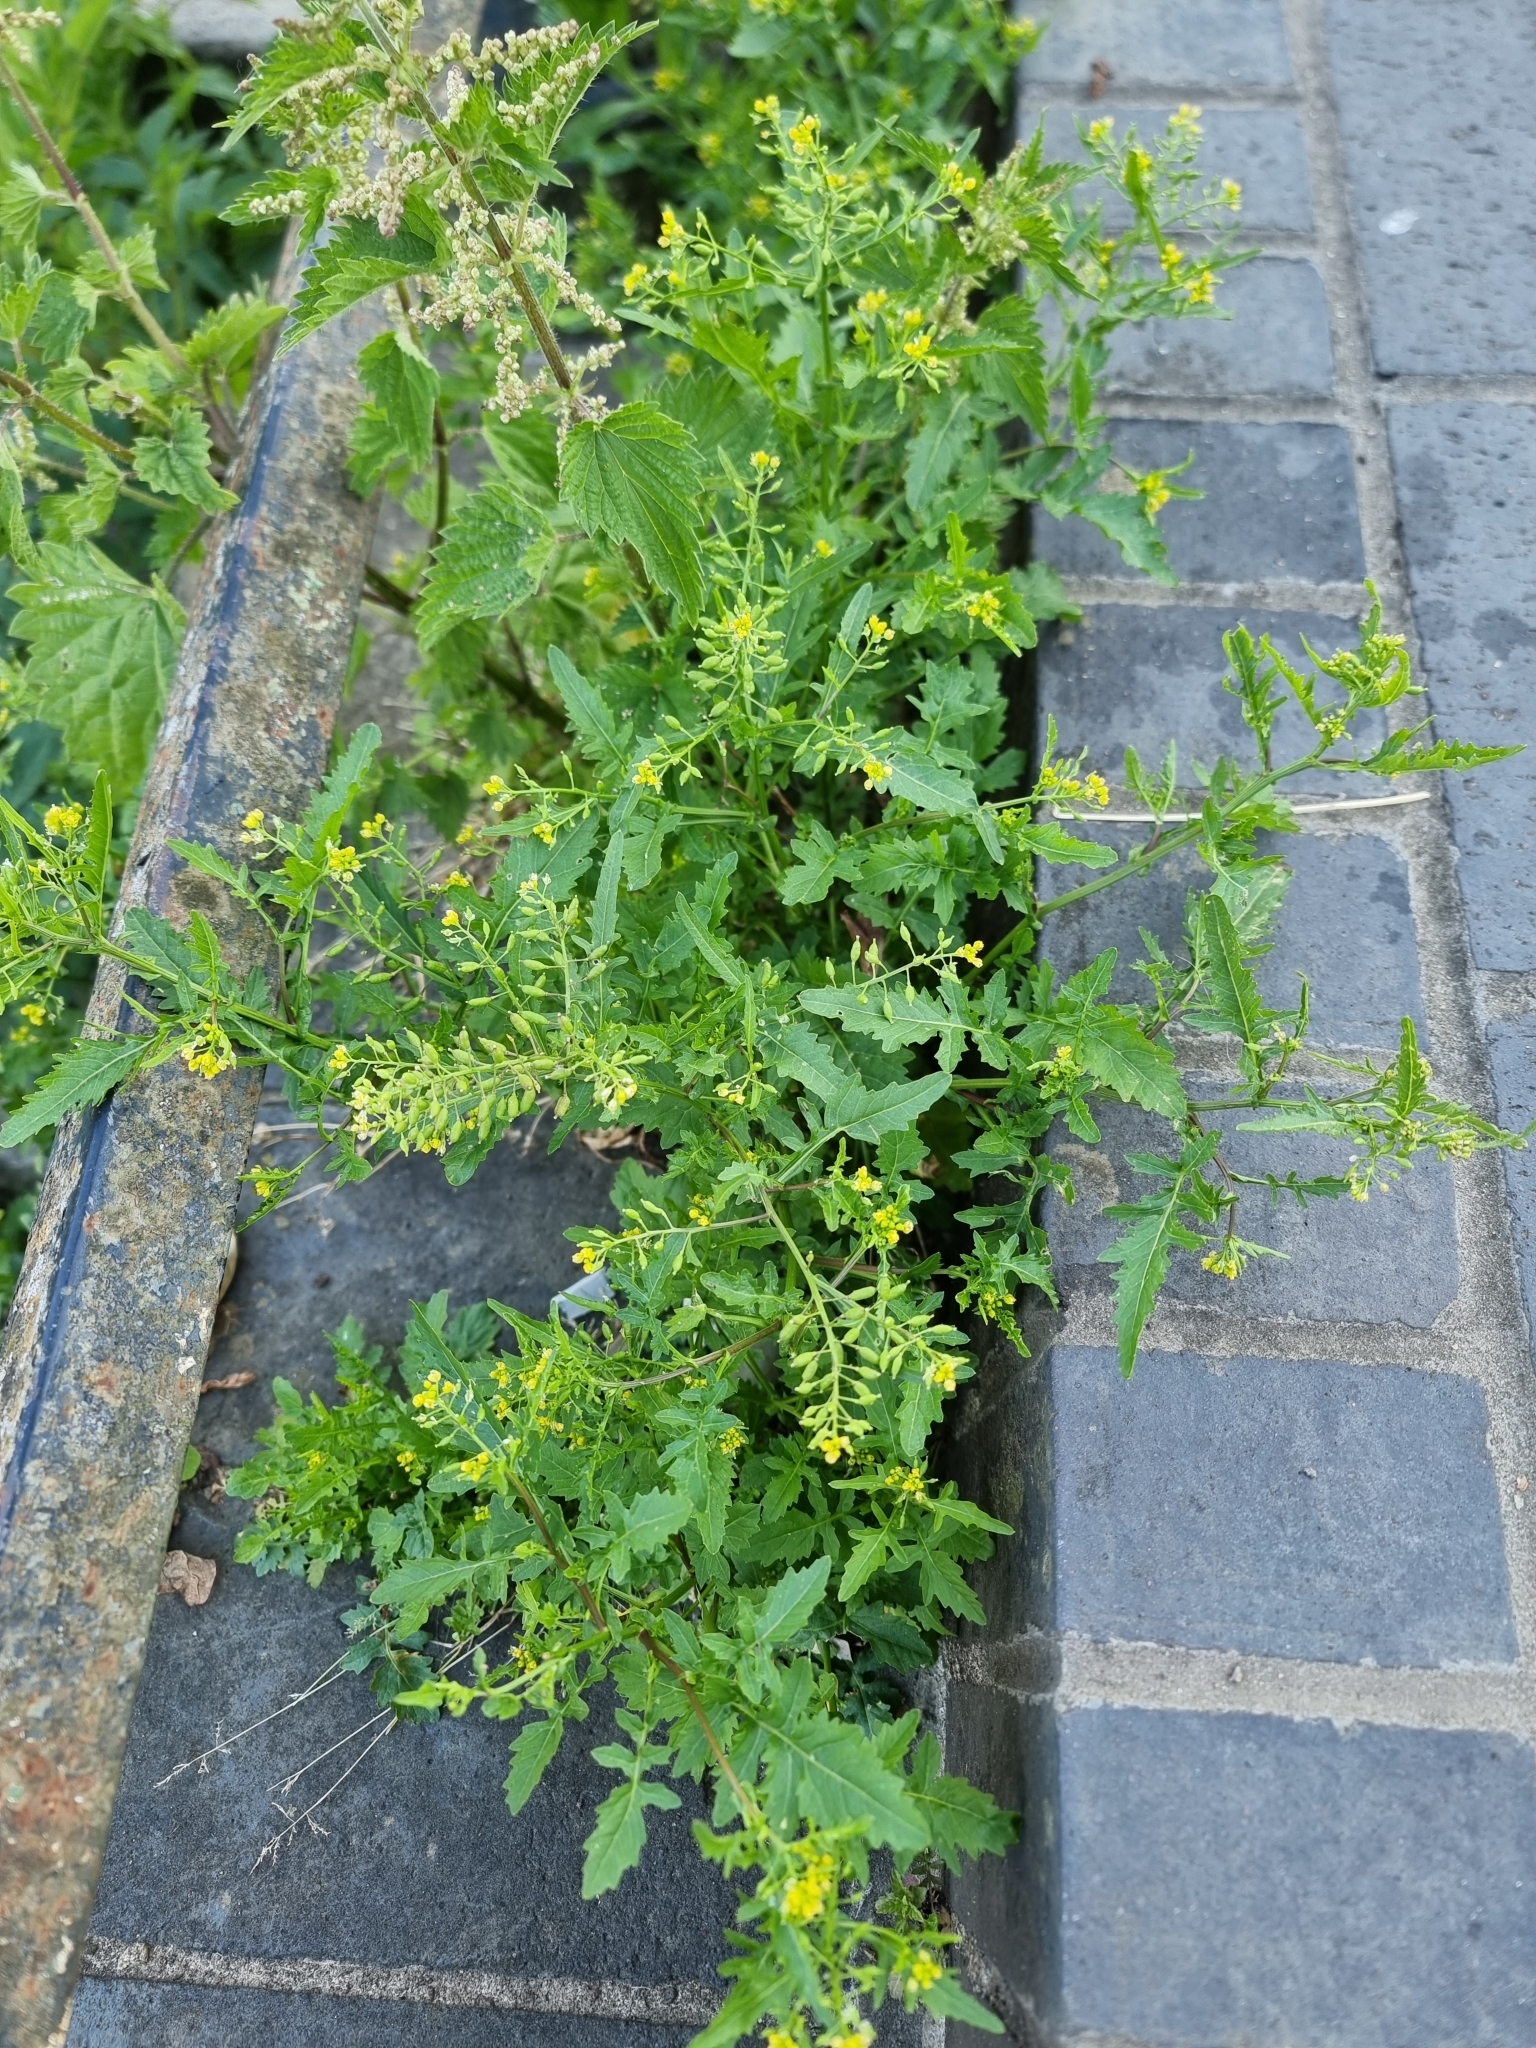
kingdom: Plantae
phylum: Tracheophyta
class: Magnoliopsida
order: Brassicales
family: Brassicaceae
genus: Rorippa
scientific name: Rorippa palustris
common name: Marsh yellow-cress
